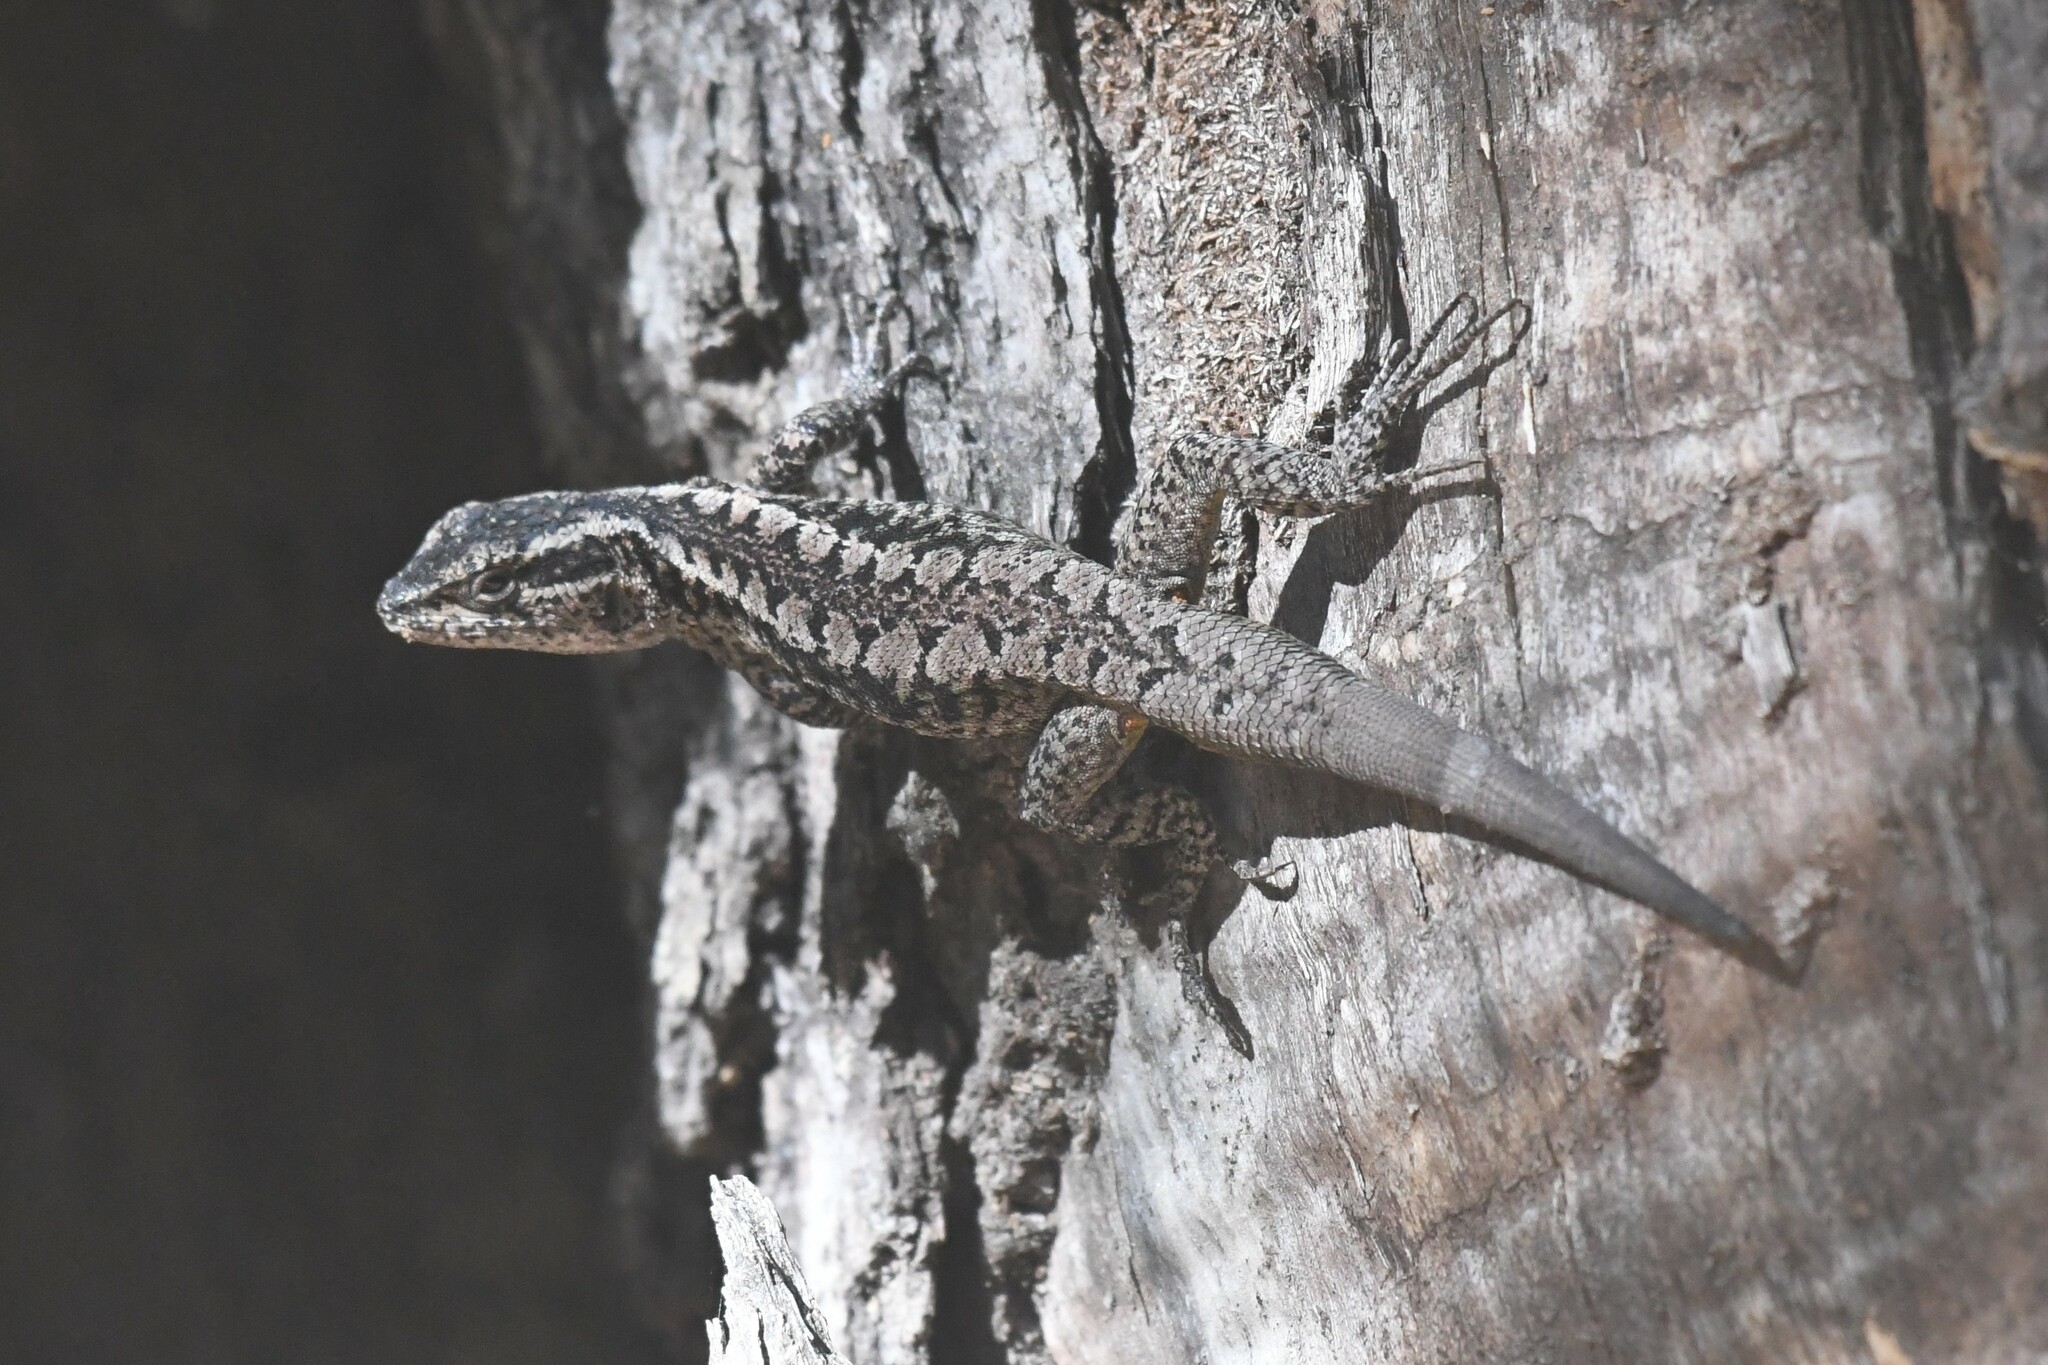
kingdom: Animalia
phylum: Chordata
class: Squamata
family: Liolaemidae
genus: Liolaemus
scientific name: Liolaemus septentrionalis
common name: Painted tree iguana
